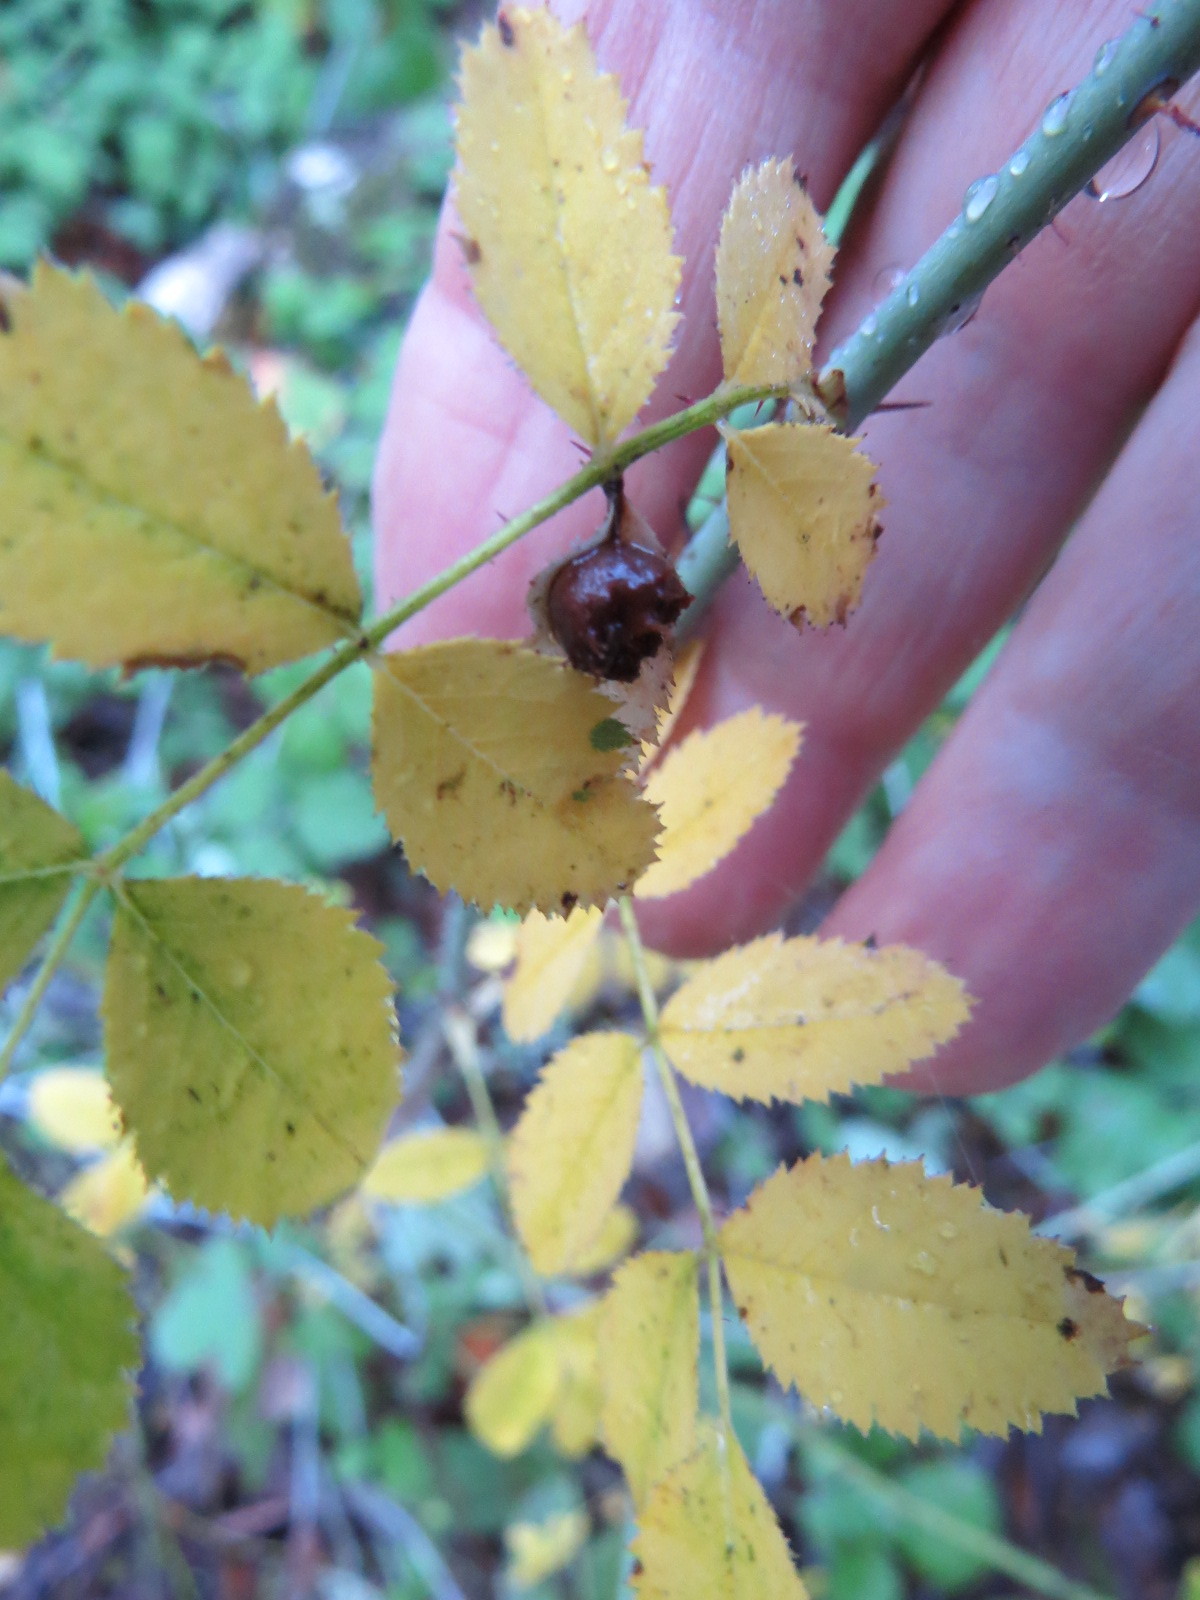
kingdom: Animalia
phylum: Arthropoda
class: Insecta
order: Hymenoptera
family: Cynipidae
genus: Diplolepis
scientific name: Diplolepis polita
